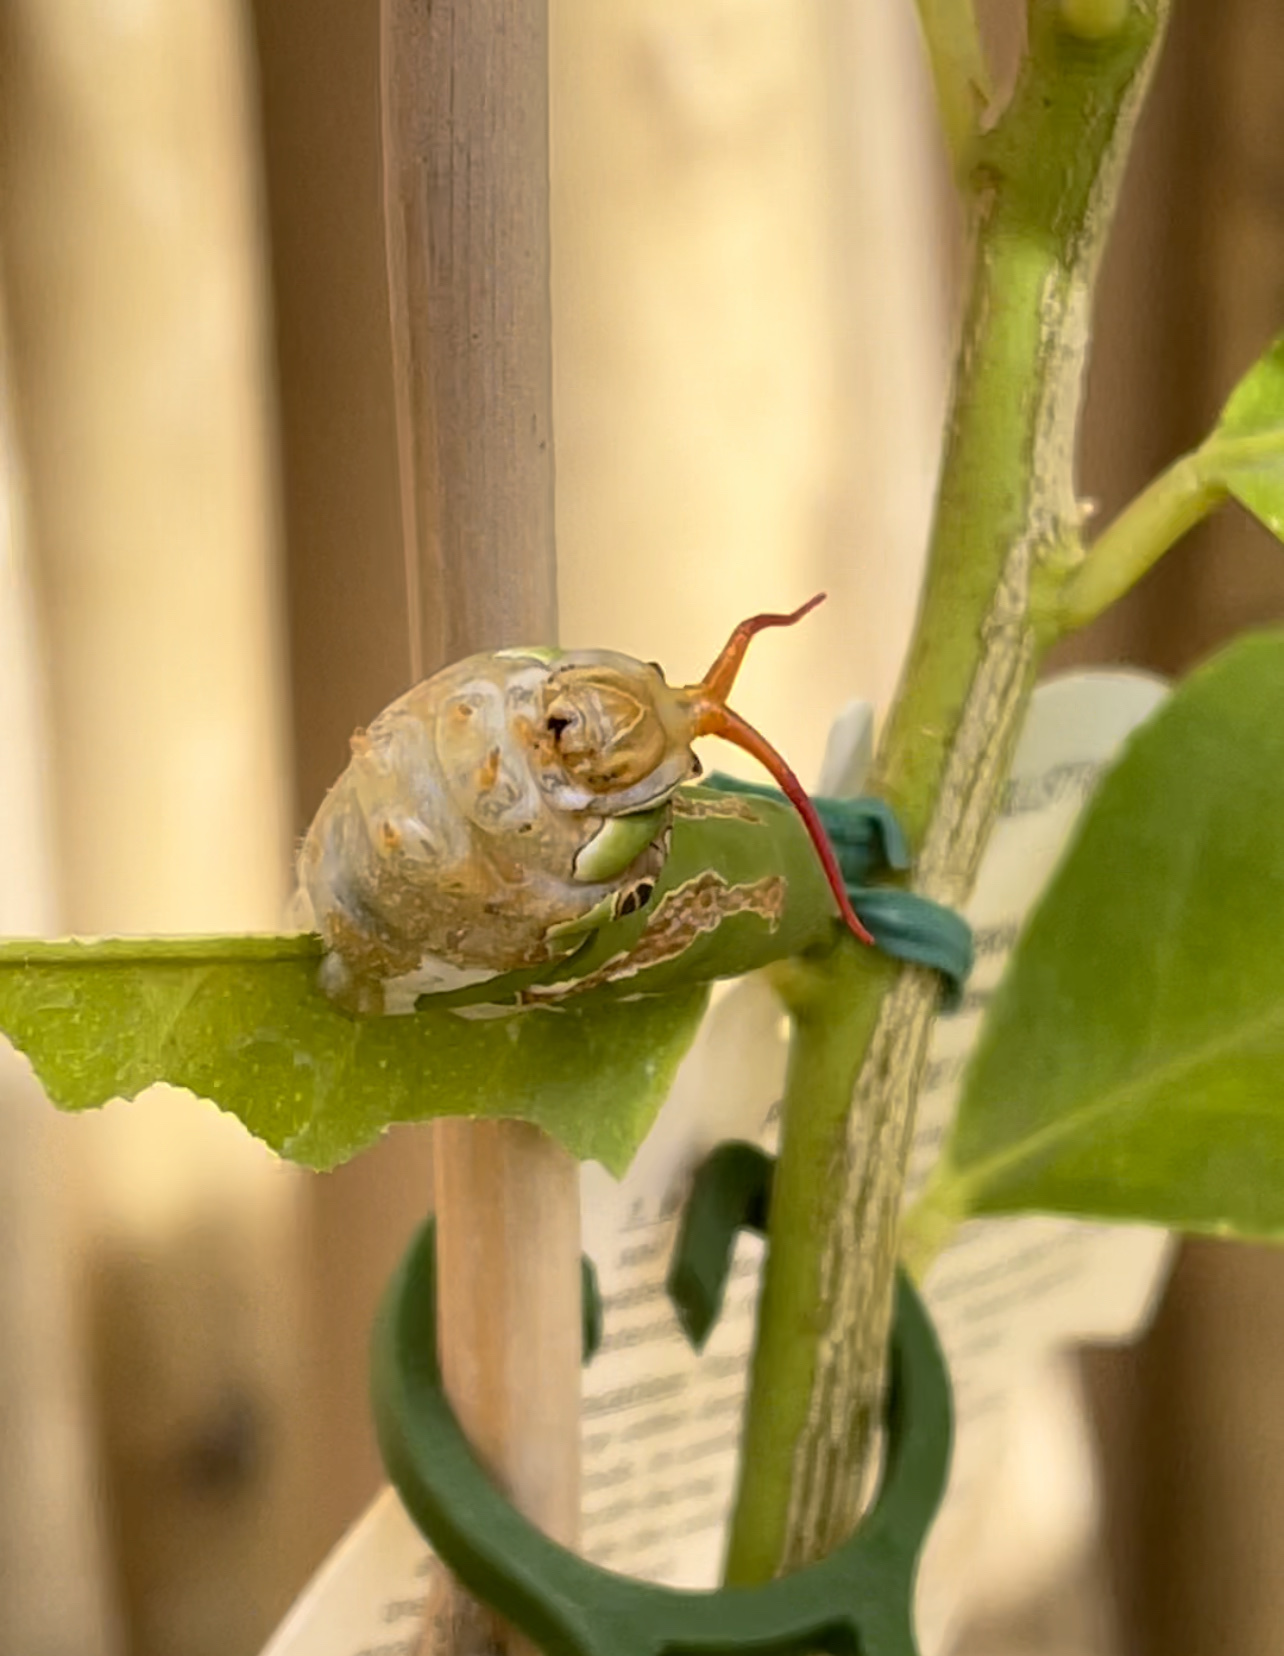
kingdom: Animalia
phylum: Arthropoda
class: Insecta
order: Lepidoptera
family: Papilionidae
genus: Papilio
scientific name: Papilio demodocus
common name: Christmas butterfly
